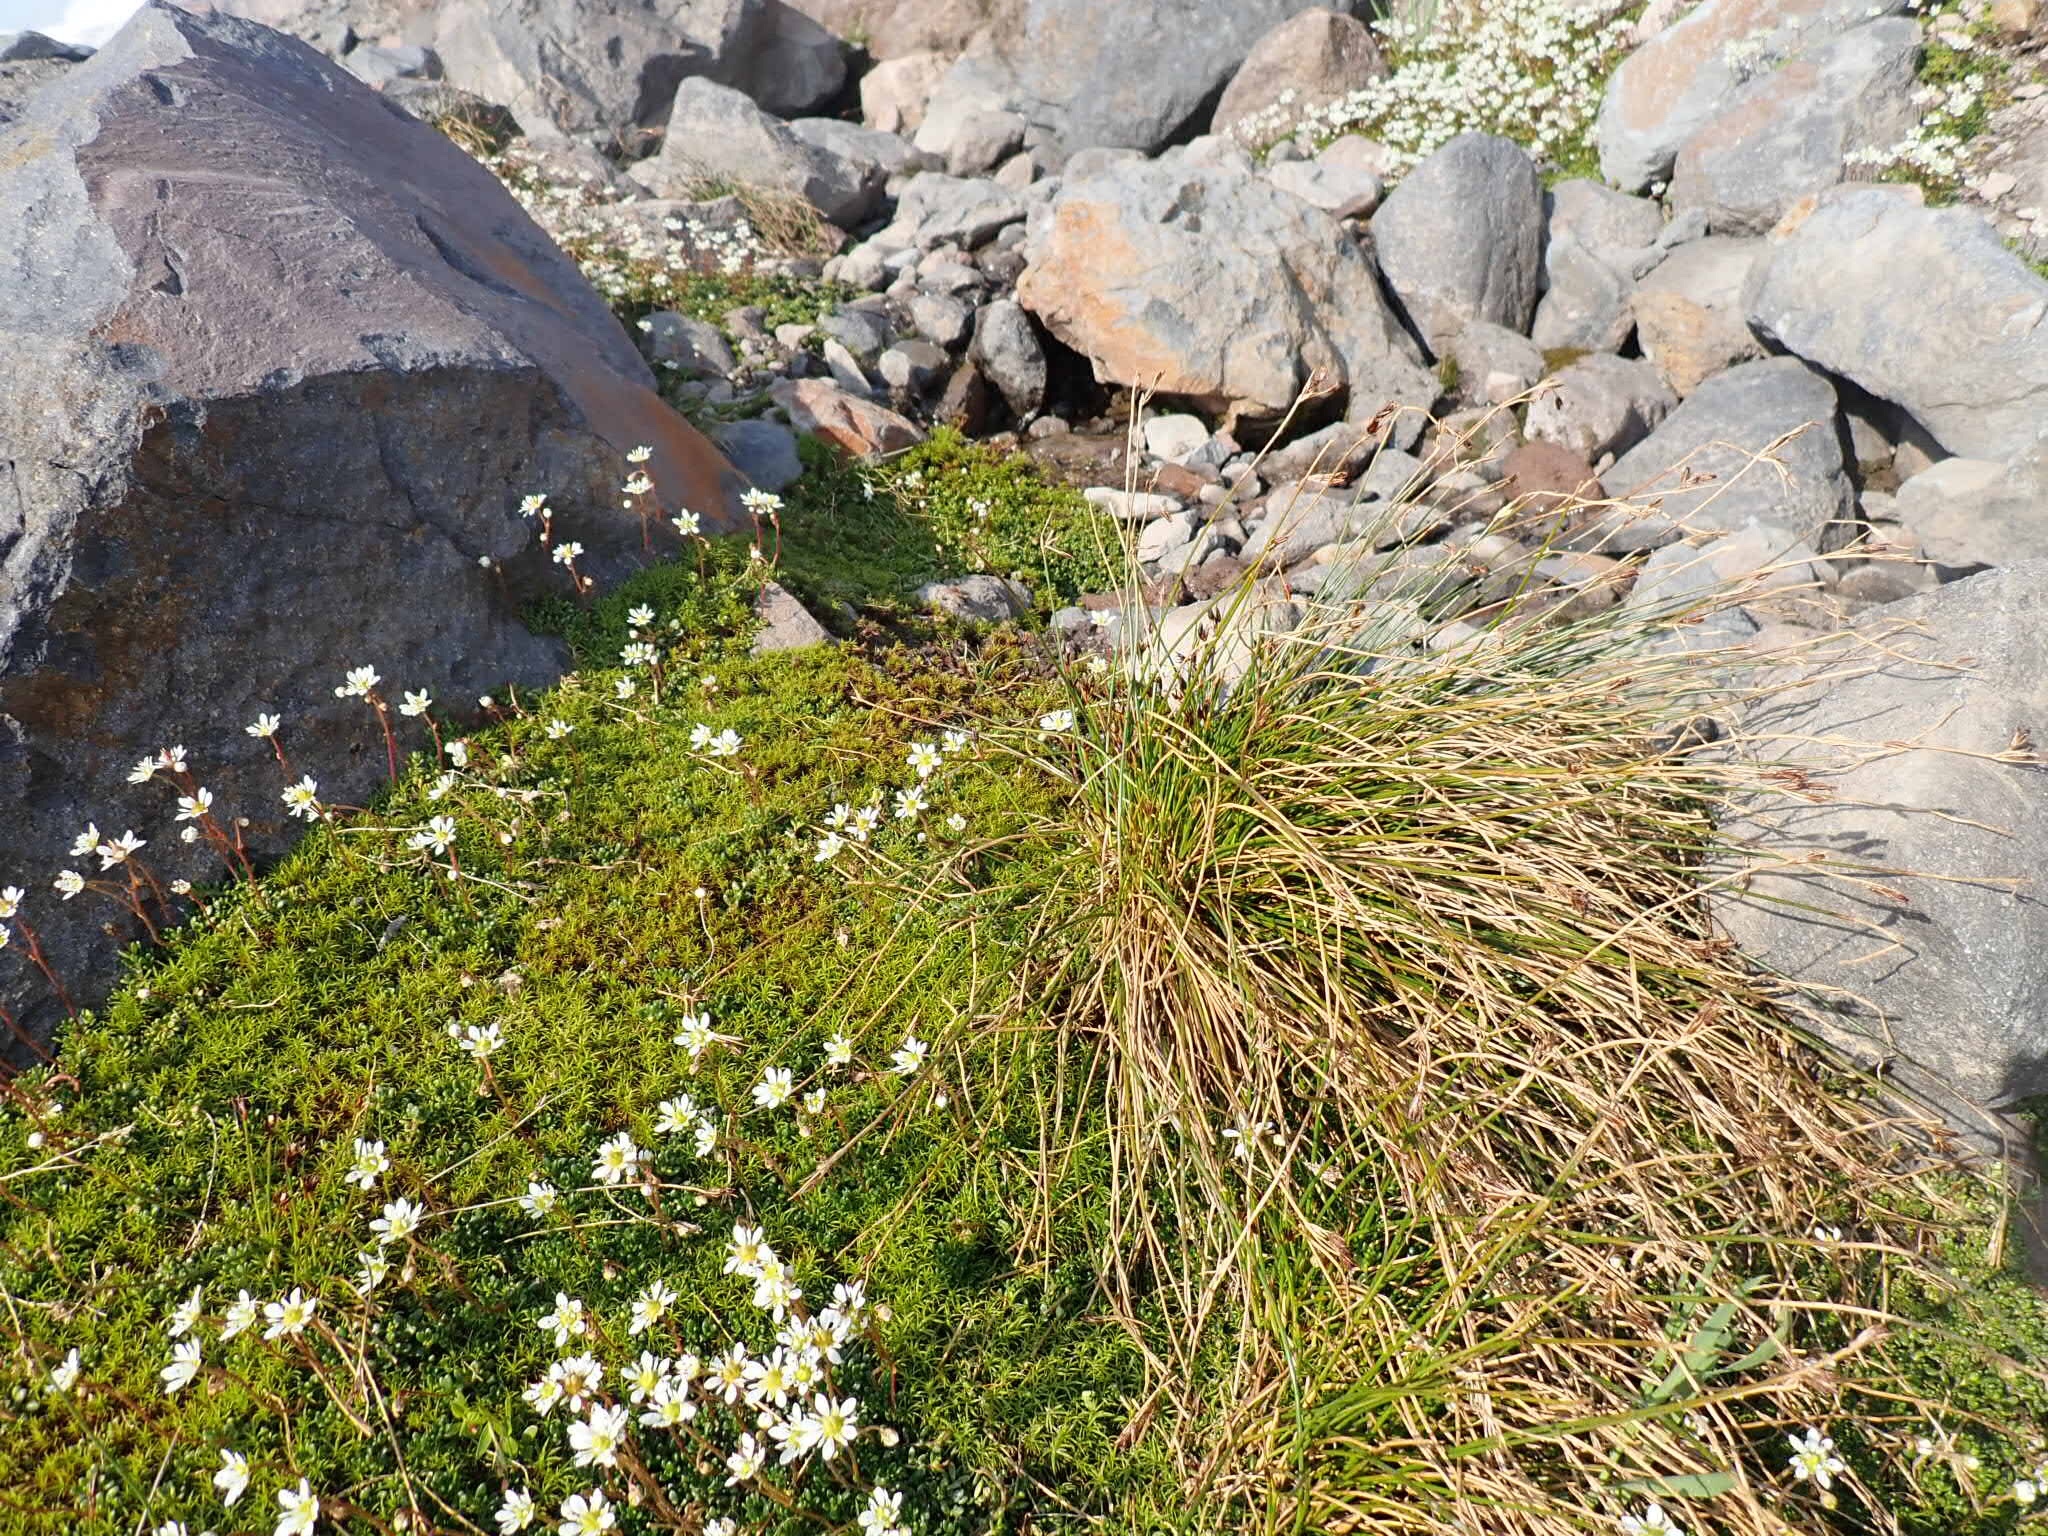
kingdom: Plantae
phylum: Tracheophyta
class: Magnoliopsida
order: Saxifragales
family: Saxifragaceae
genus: Micranthes
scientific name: Micranthes tolmiei
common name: Tolmie's saxifrage
